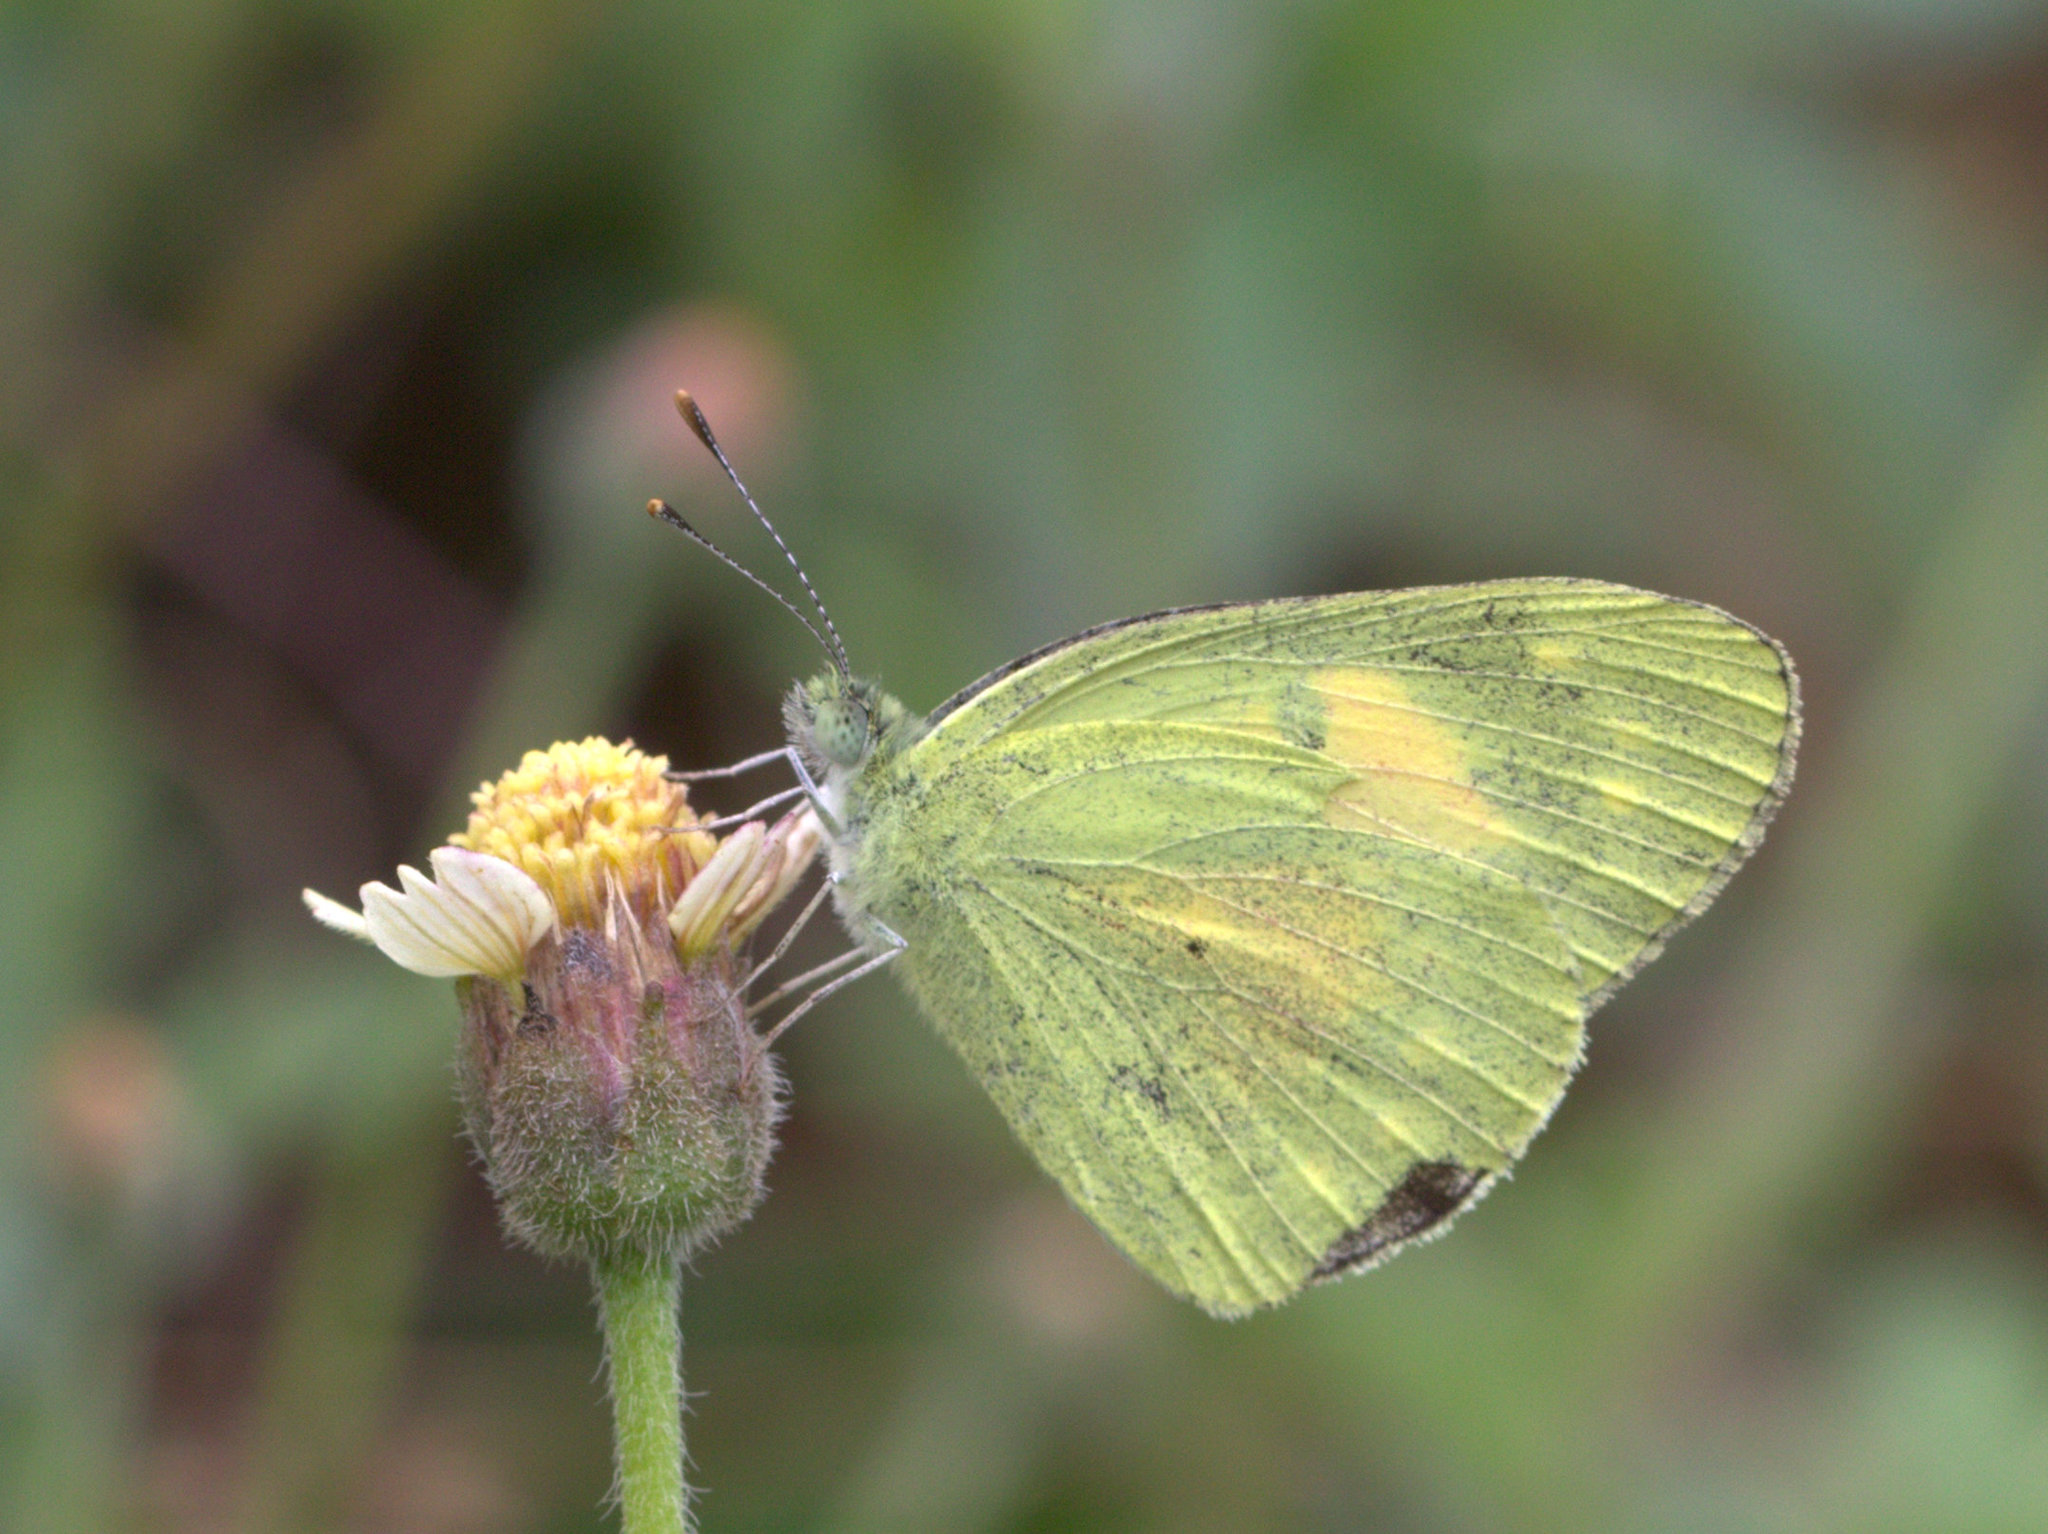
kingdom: Animalia
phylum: Arthropoda
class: Insecta
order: Lepidoptera
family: Pieridae
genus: Colotis
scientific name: Colotis amata
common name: Small salmon arab
